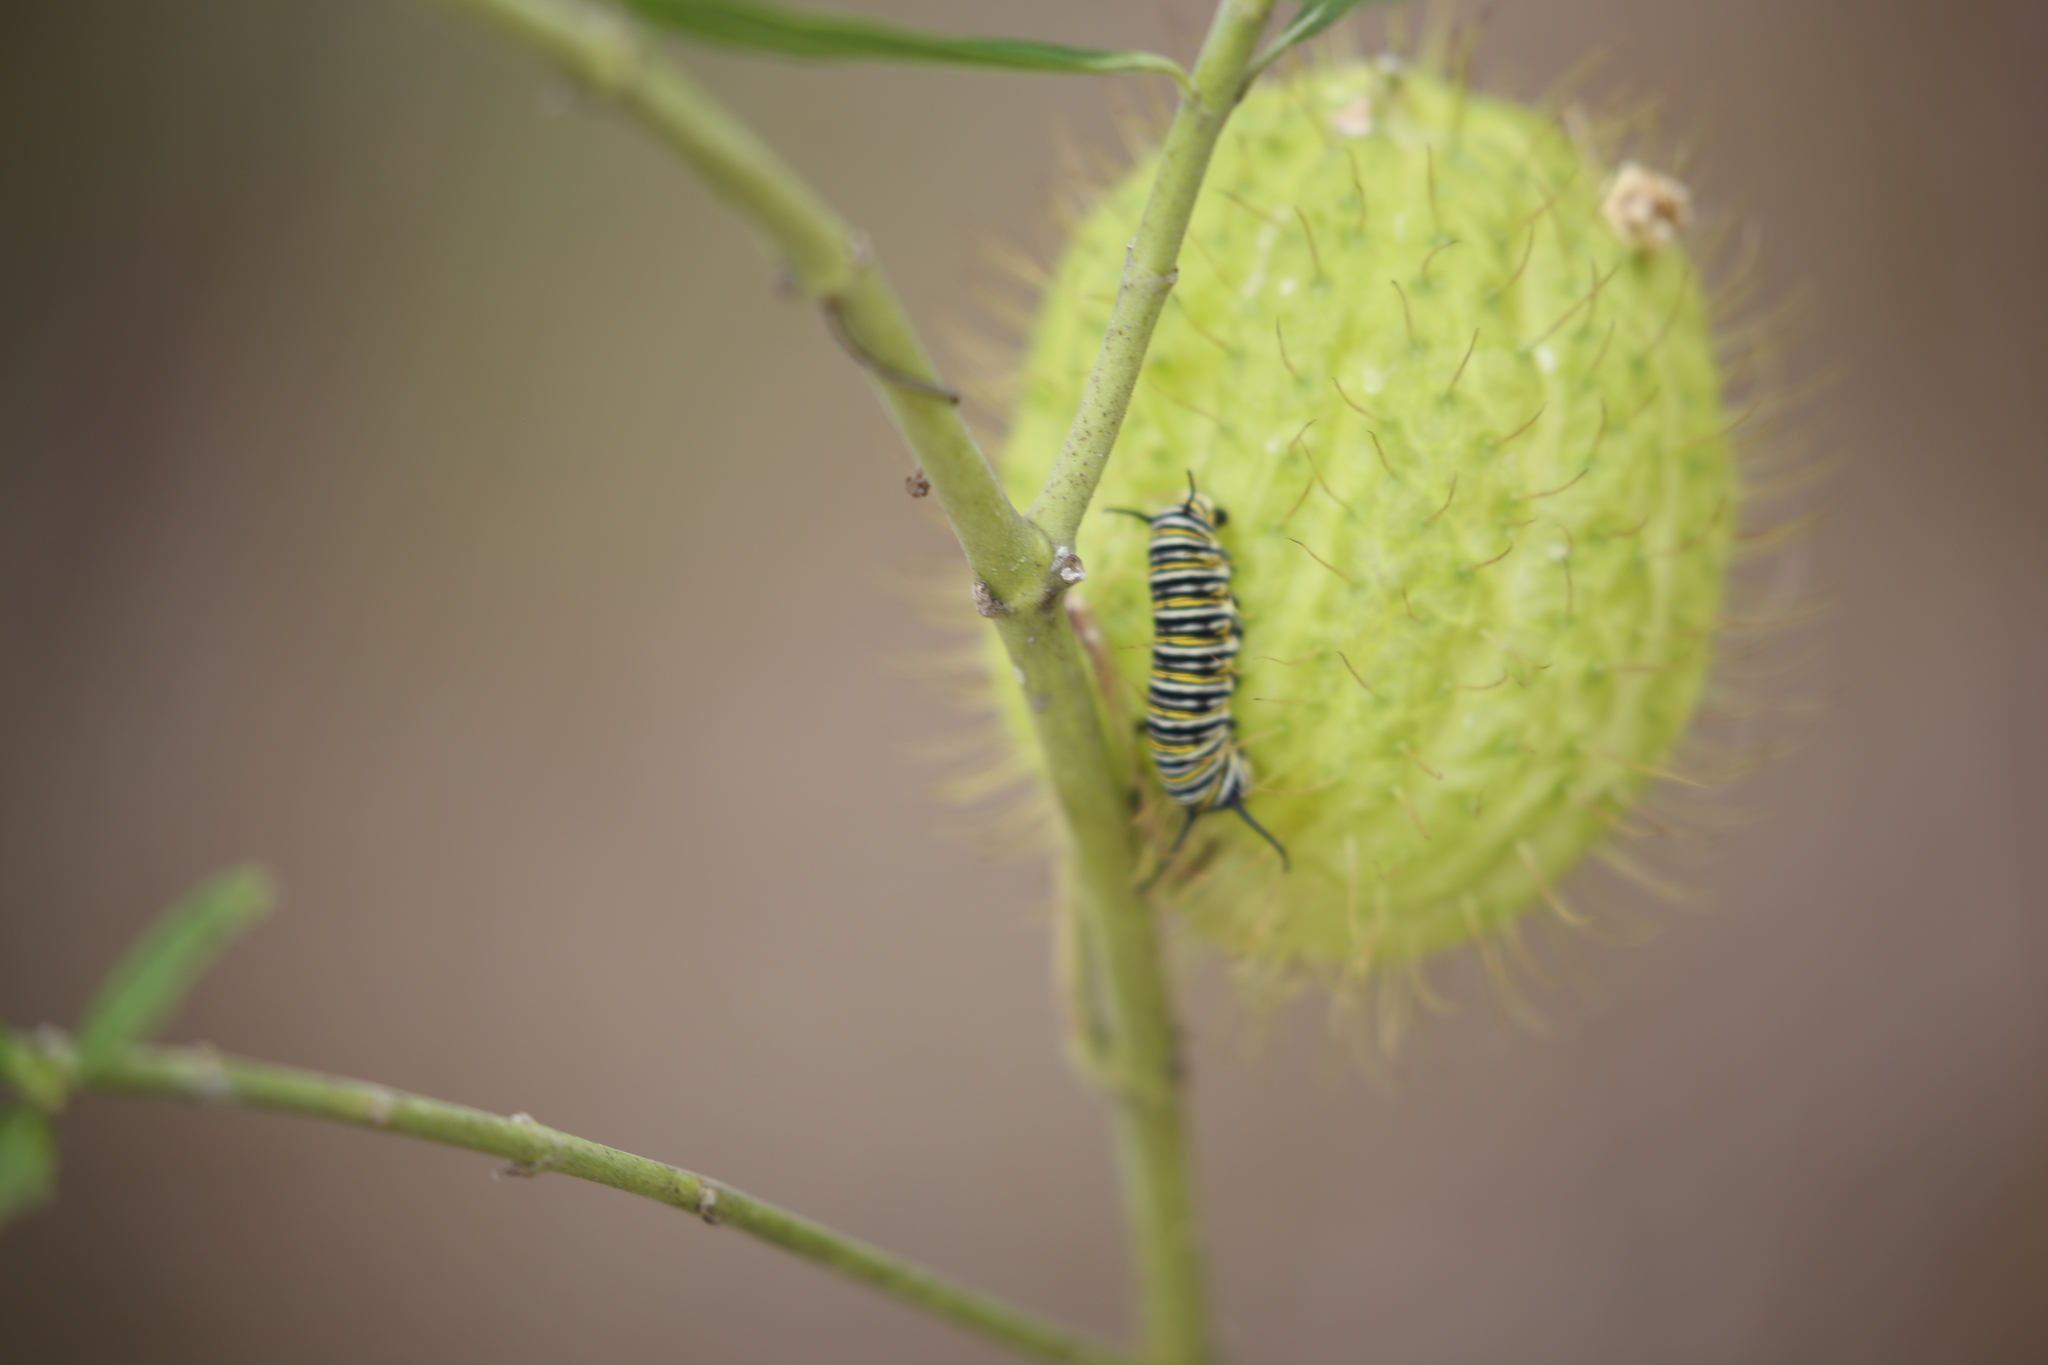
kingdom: Plantae
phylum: Tracheophyta
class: Magnoliopsida
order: Gentianales
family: Apocynaceae
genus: Gomphocarpus
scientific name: Gomphocarpus physocarpus
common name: Balloon cotton bush
